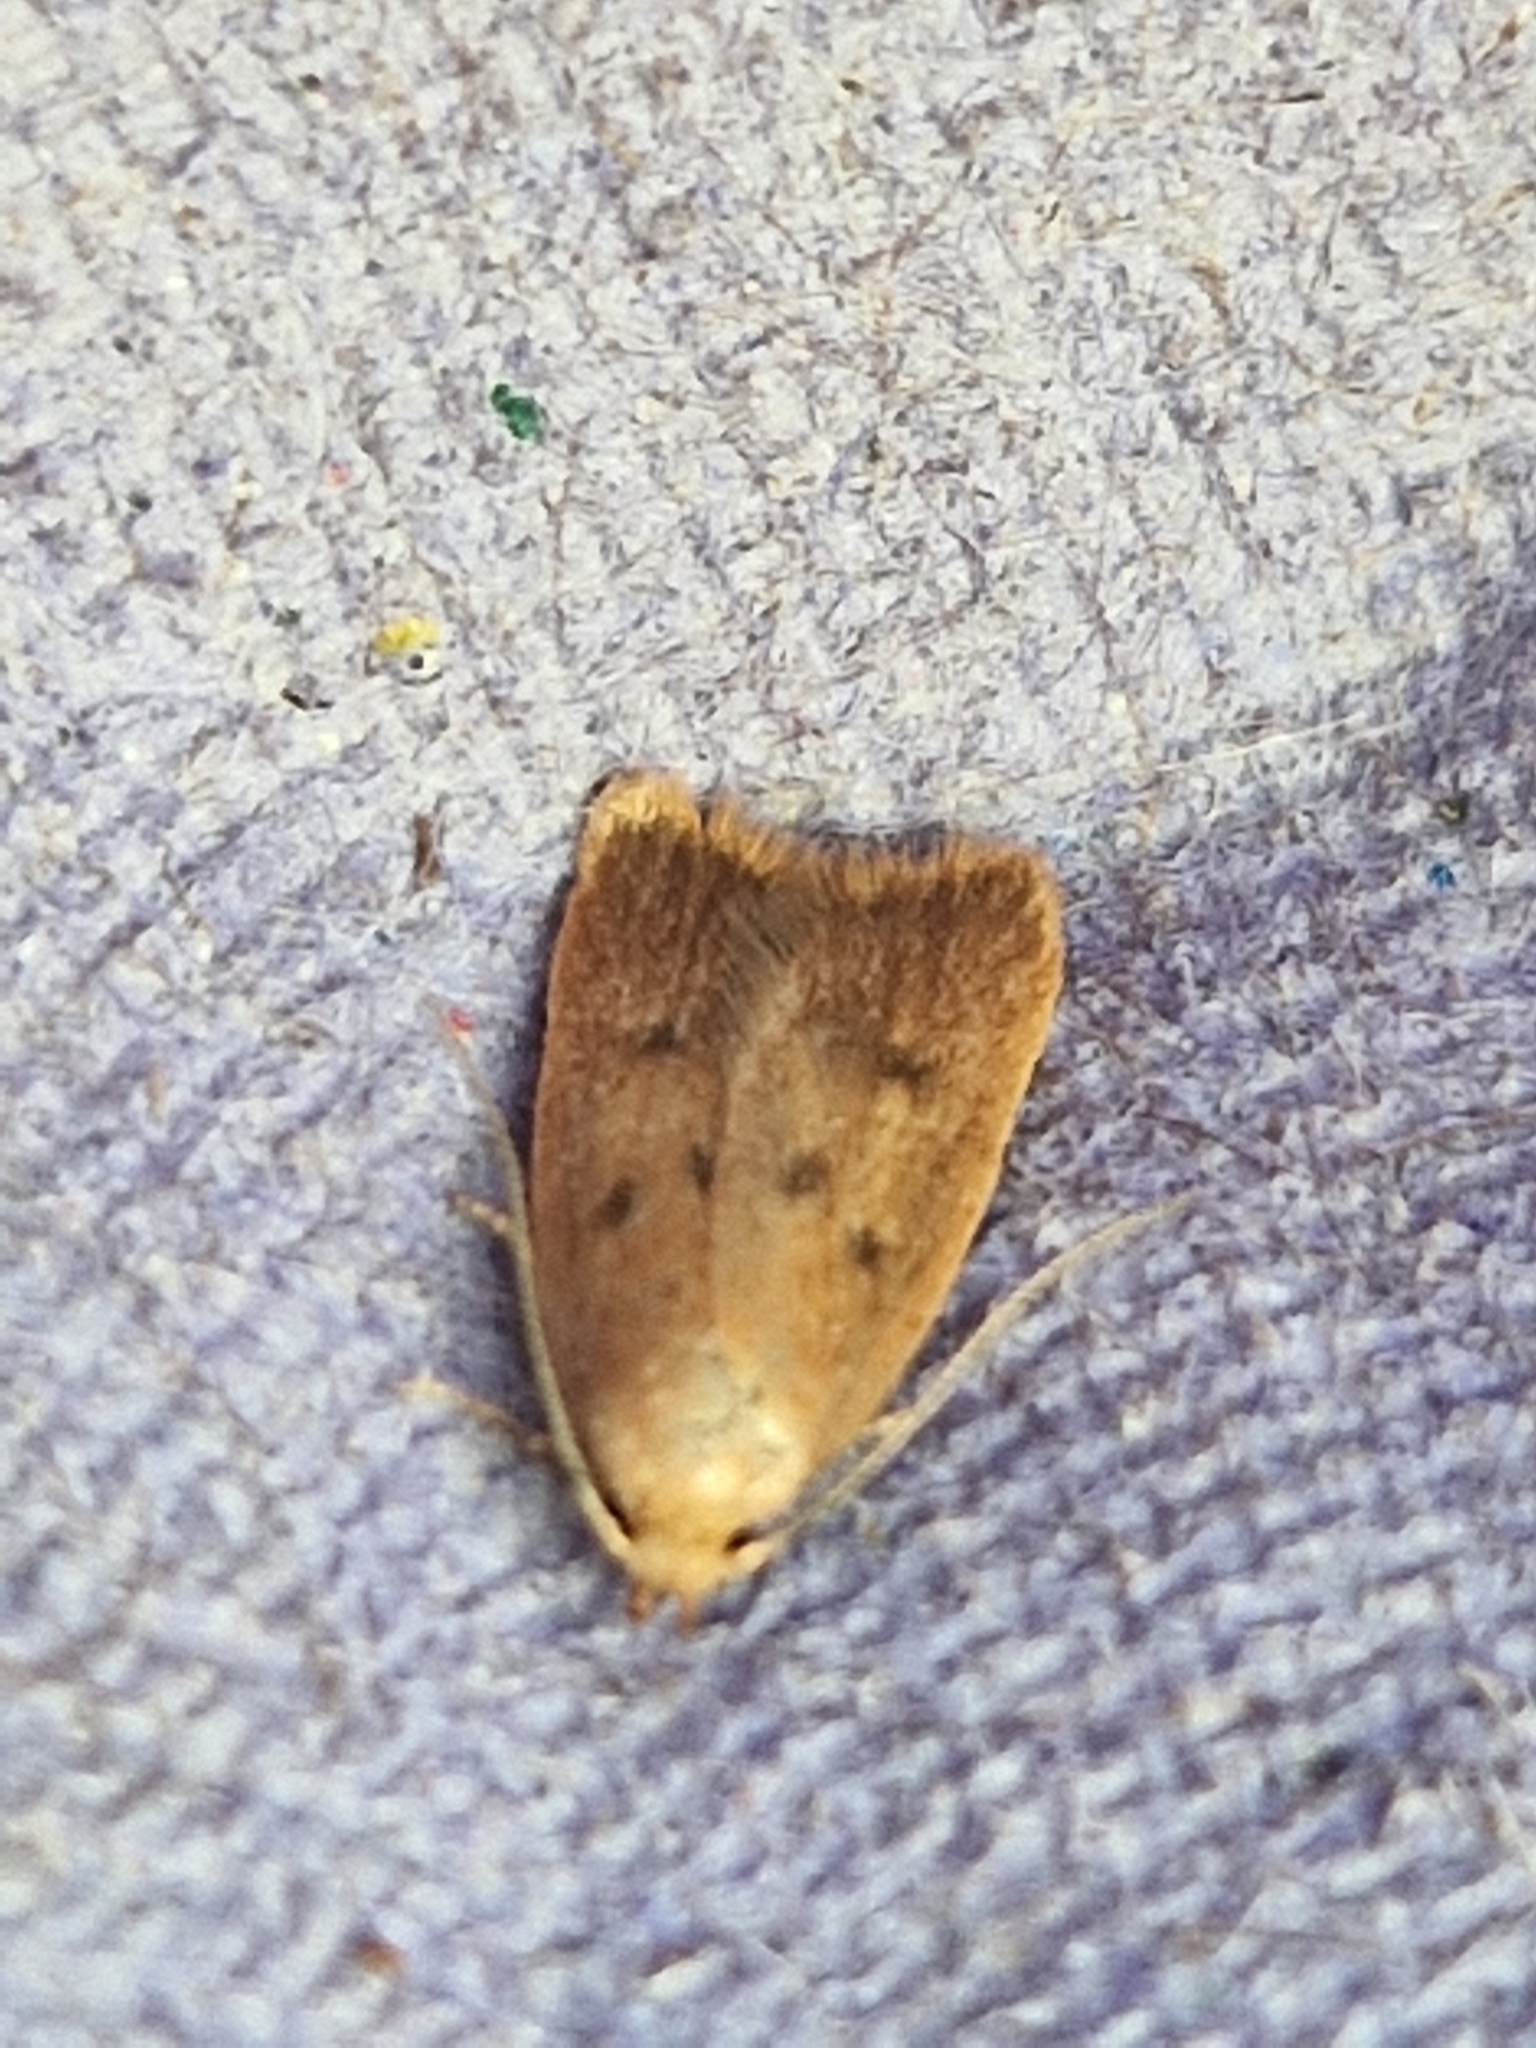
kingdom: Animalia
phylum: Arthropoda
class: Insecta
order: Lepidoptera
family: Oecophoridae
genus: Tachystola
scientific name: Tachystola acroxantha
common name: Ruddy streak
